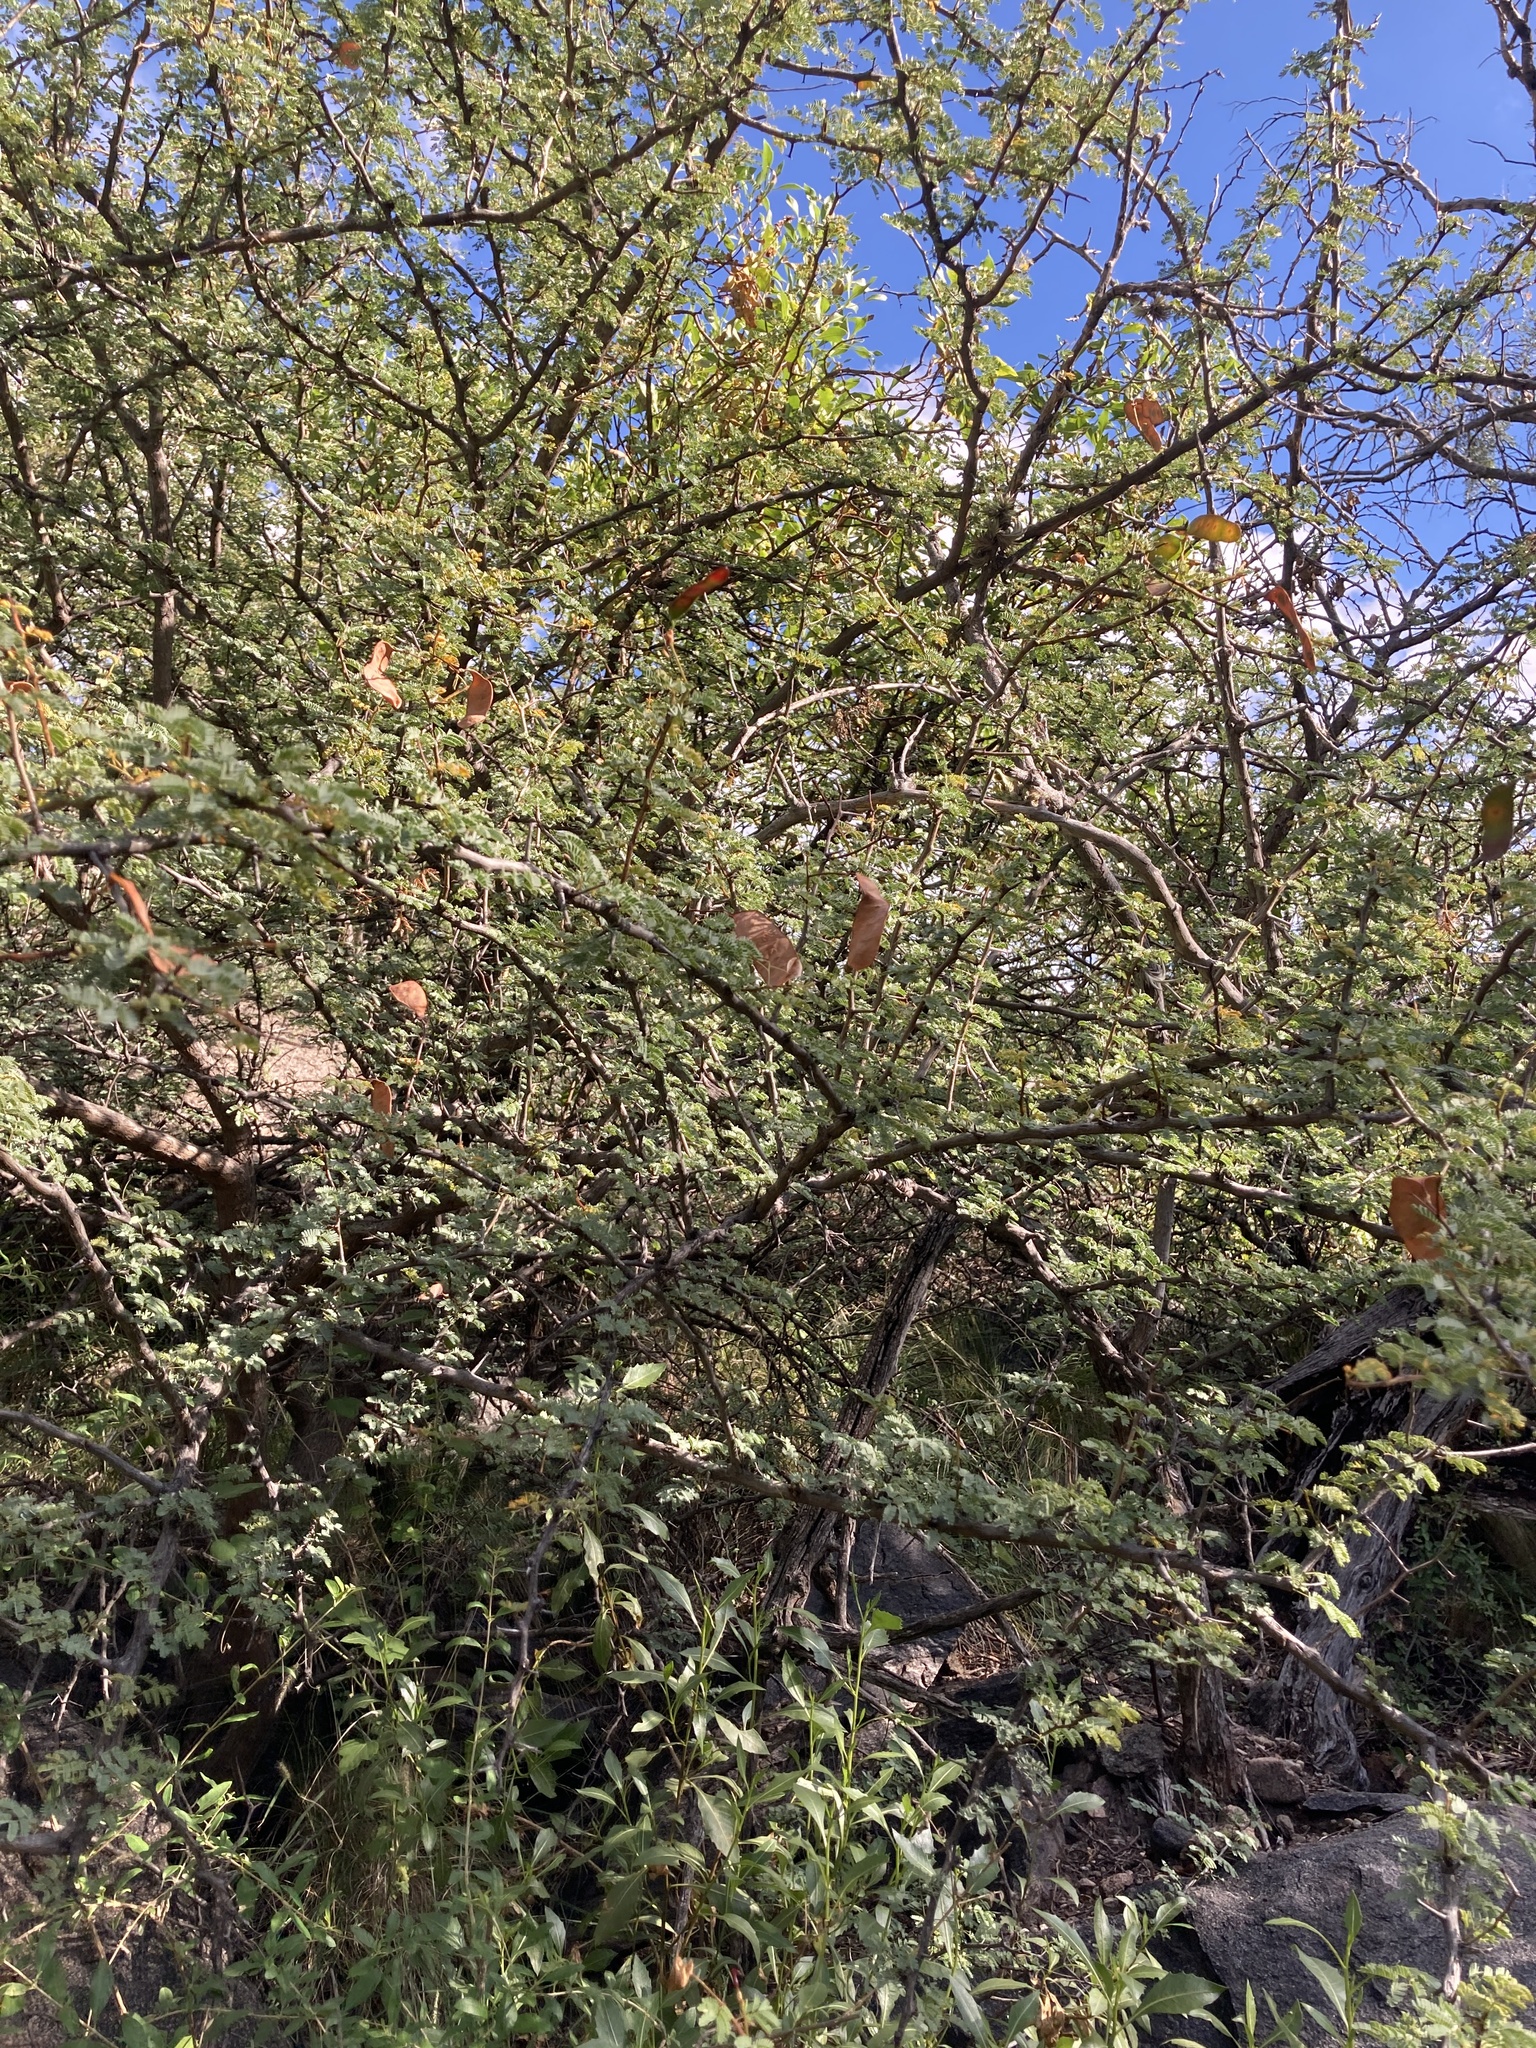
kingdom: Plantae
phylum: Tracheophyta
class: Magnoliopsida
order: Fabales
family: Fabaceae
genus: Senegalia
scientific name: Senegalia gilliesii
